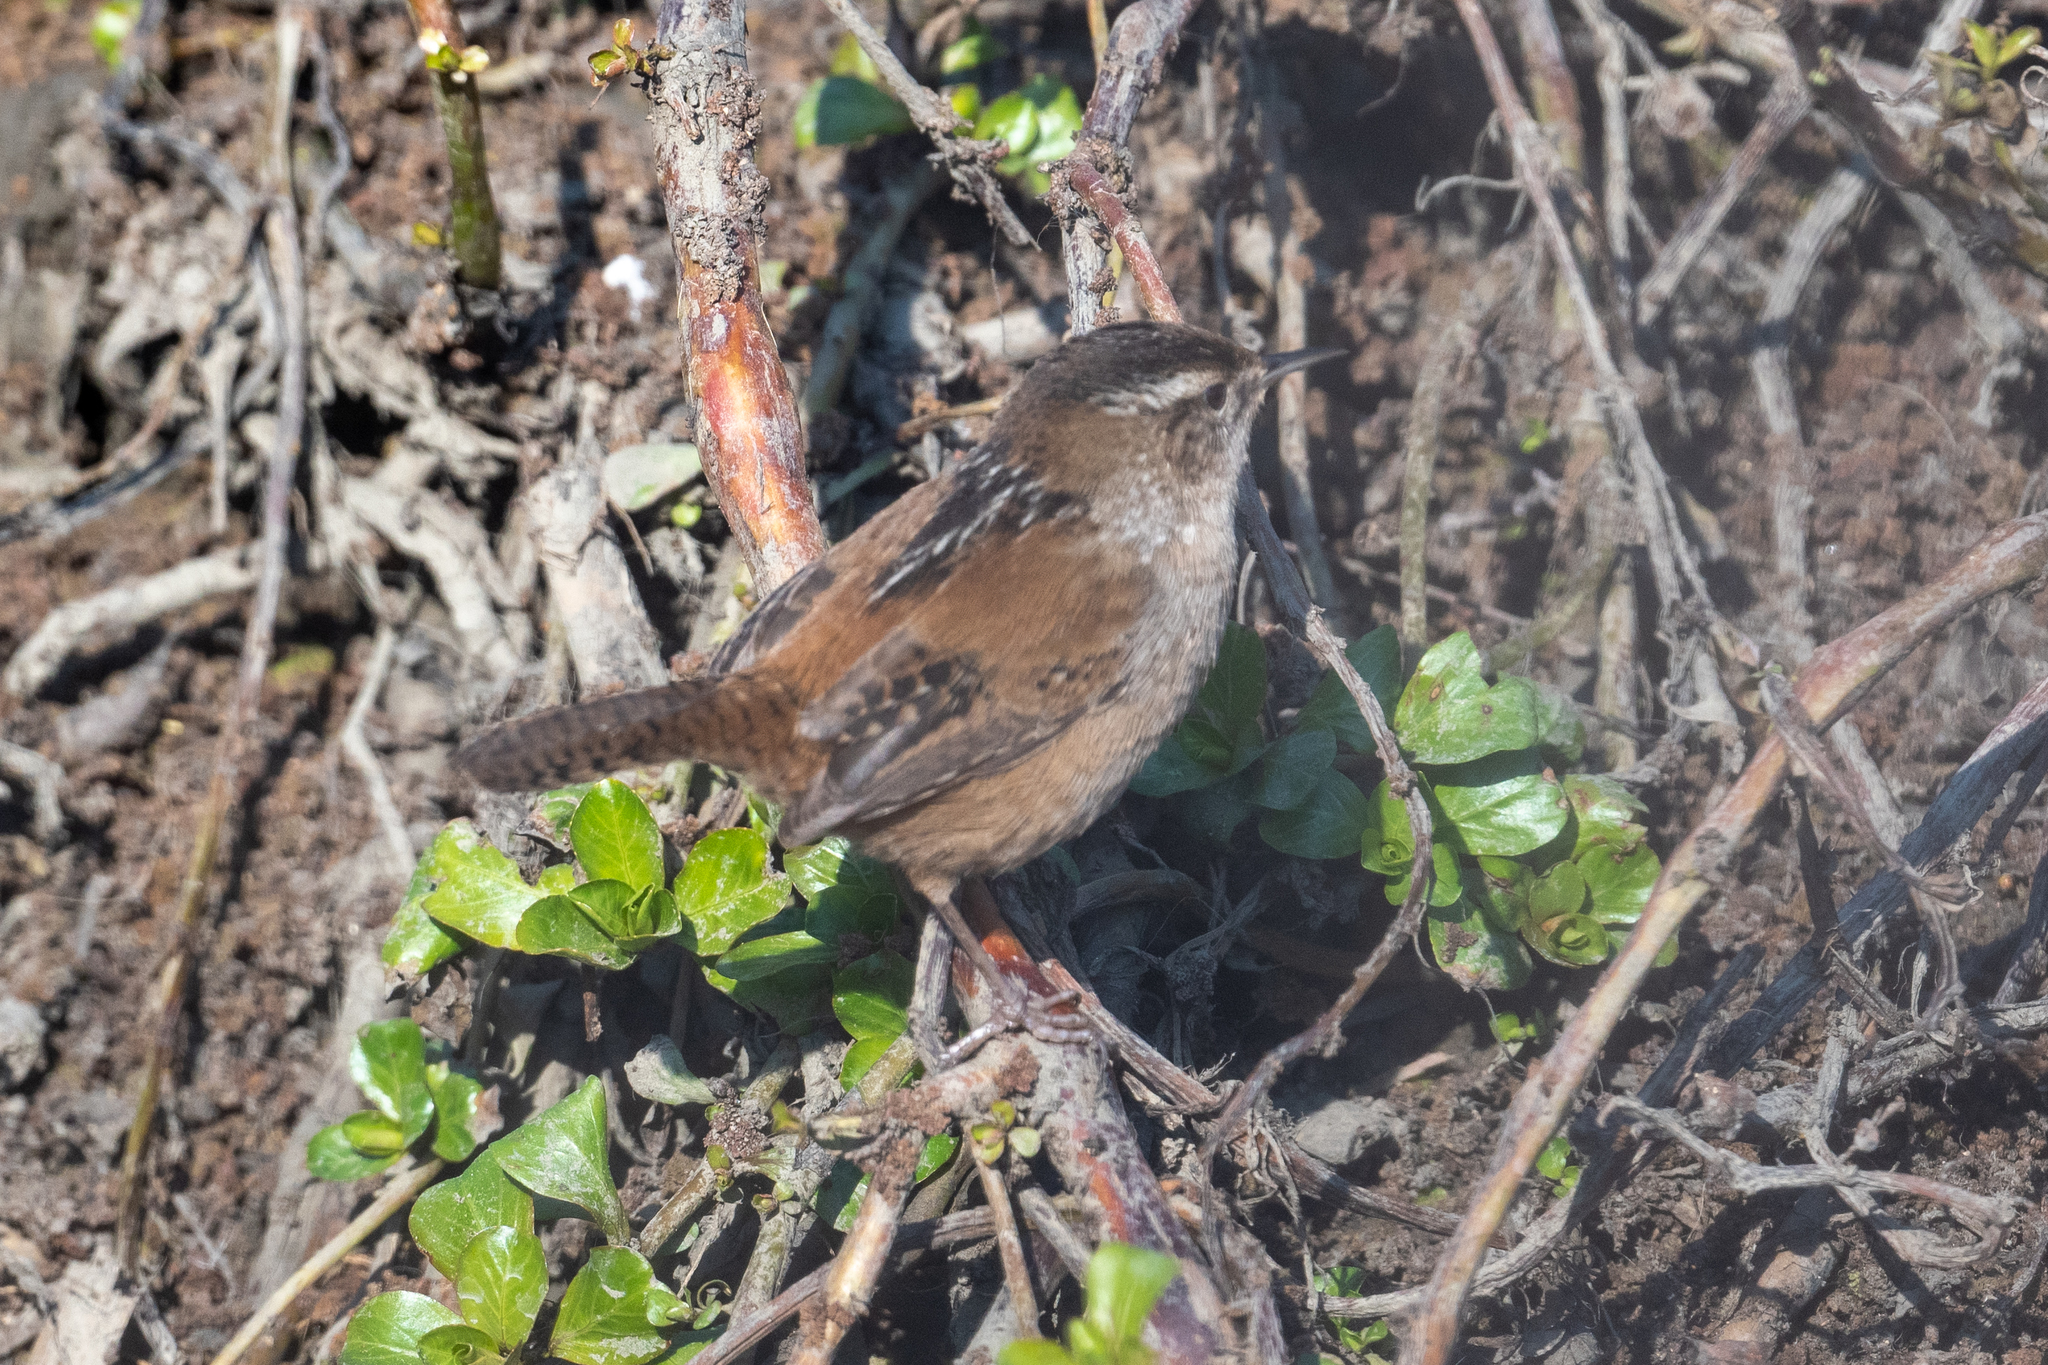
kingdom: Animalia
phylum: Chordata
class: Aves
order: Passeriformes
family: Troglodytidae
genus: Cistothorus
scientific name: Cistothorus palustris
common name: Marsh wren
